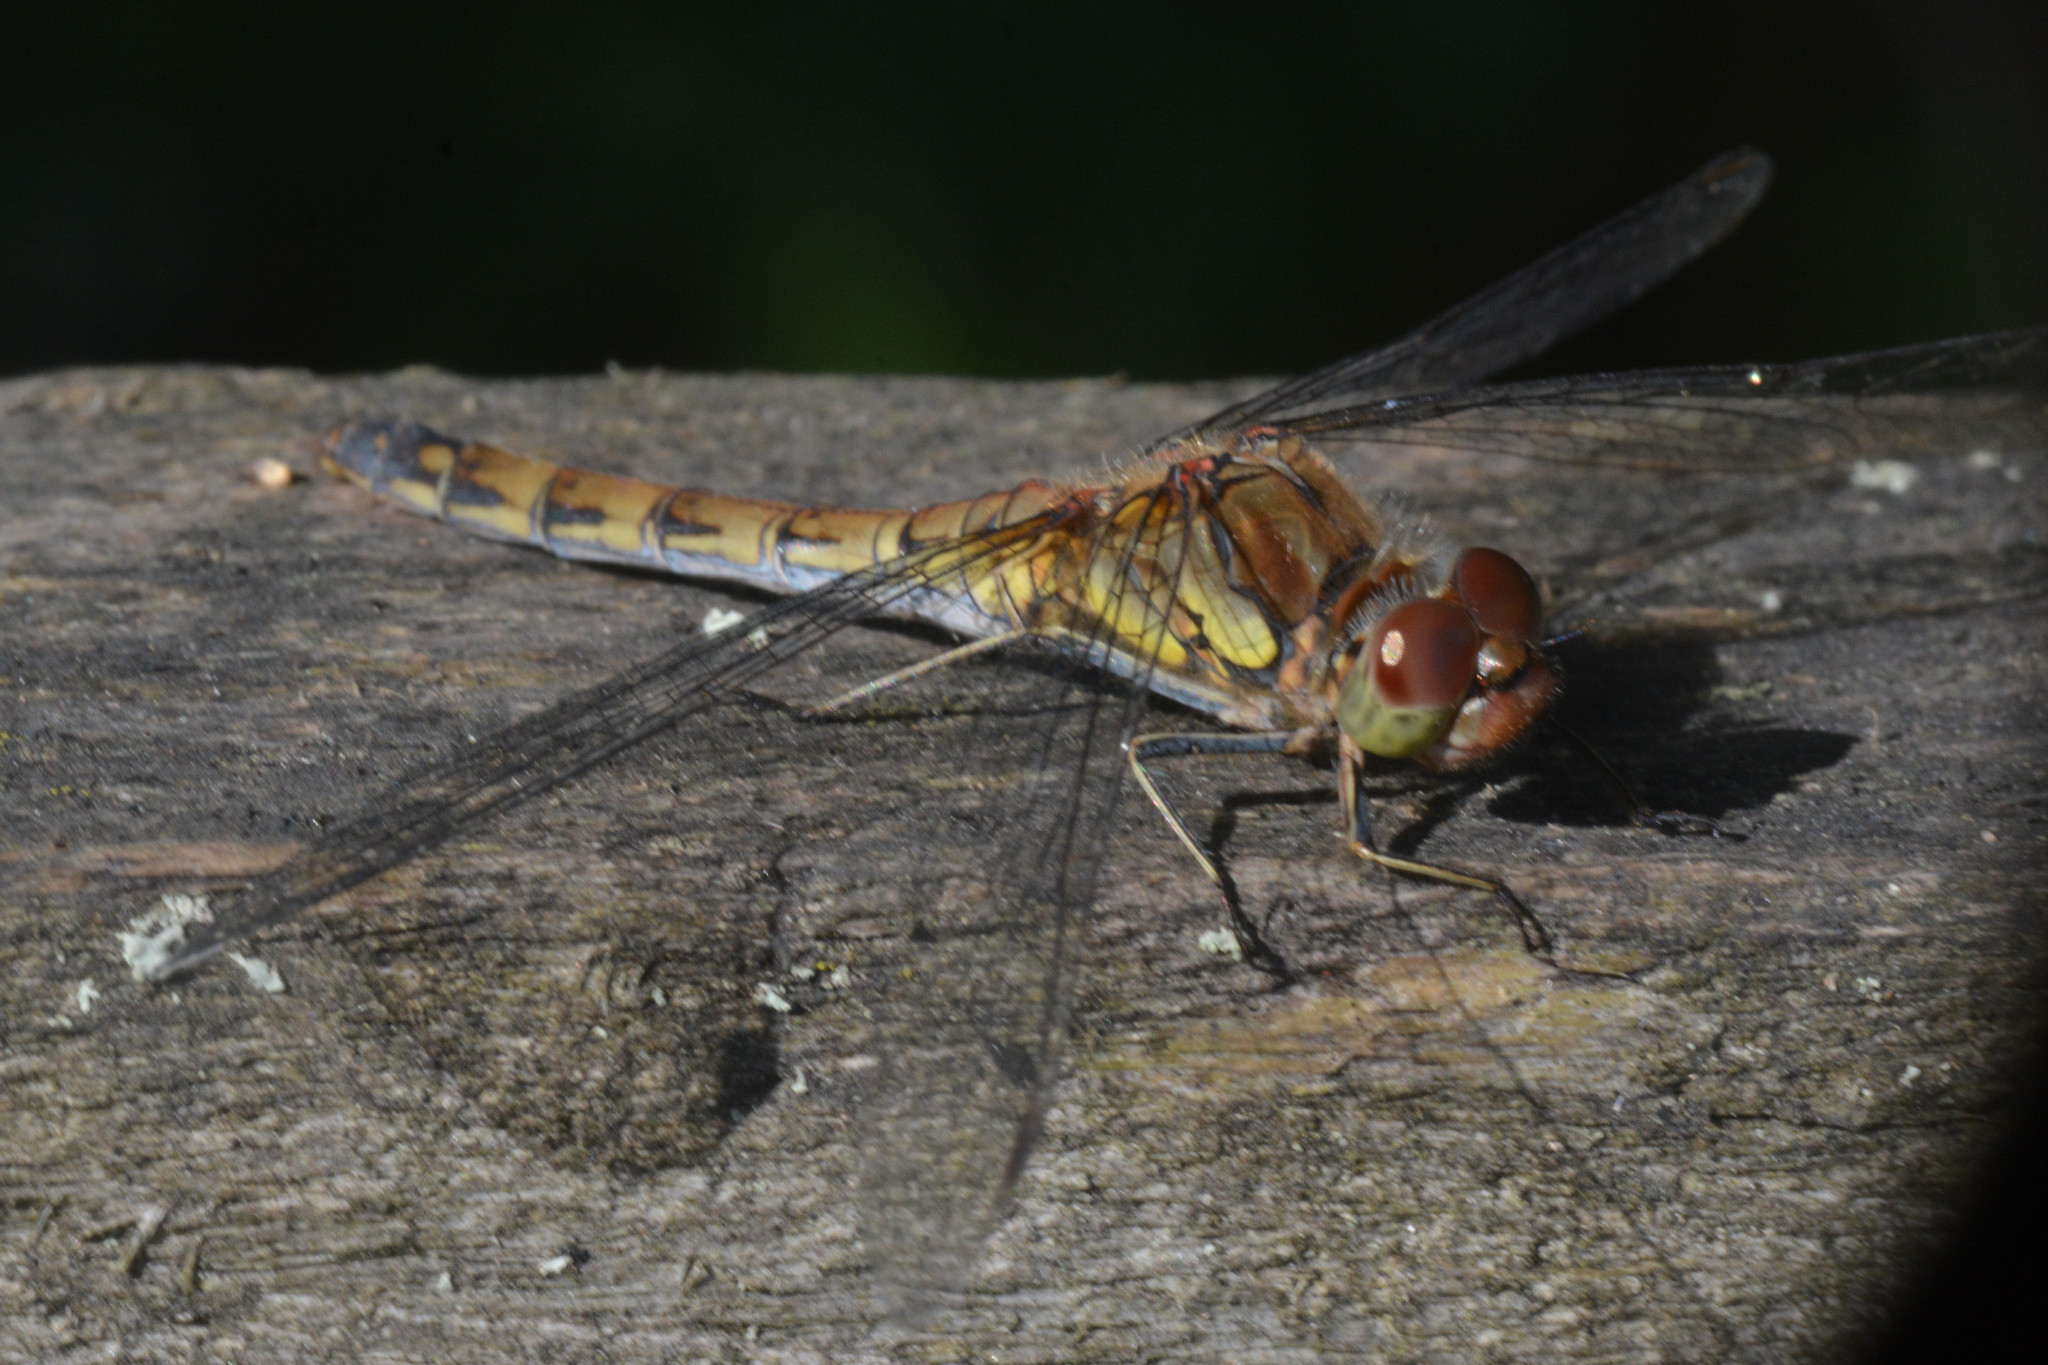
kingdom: Animalia
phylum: Arthropoda
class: Insecta
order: Odonata
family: Libellulidae
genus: Sympetrum
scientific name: Sympetrum striolatum
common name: Common darter
